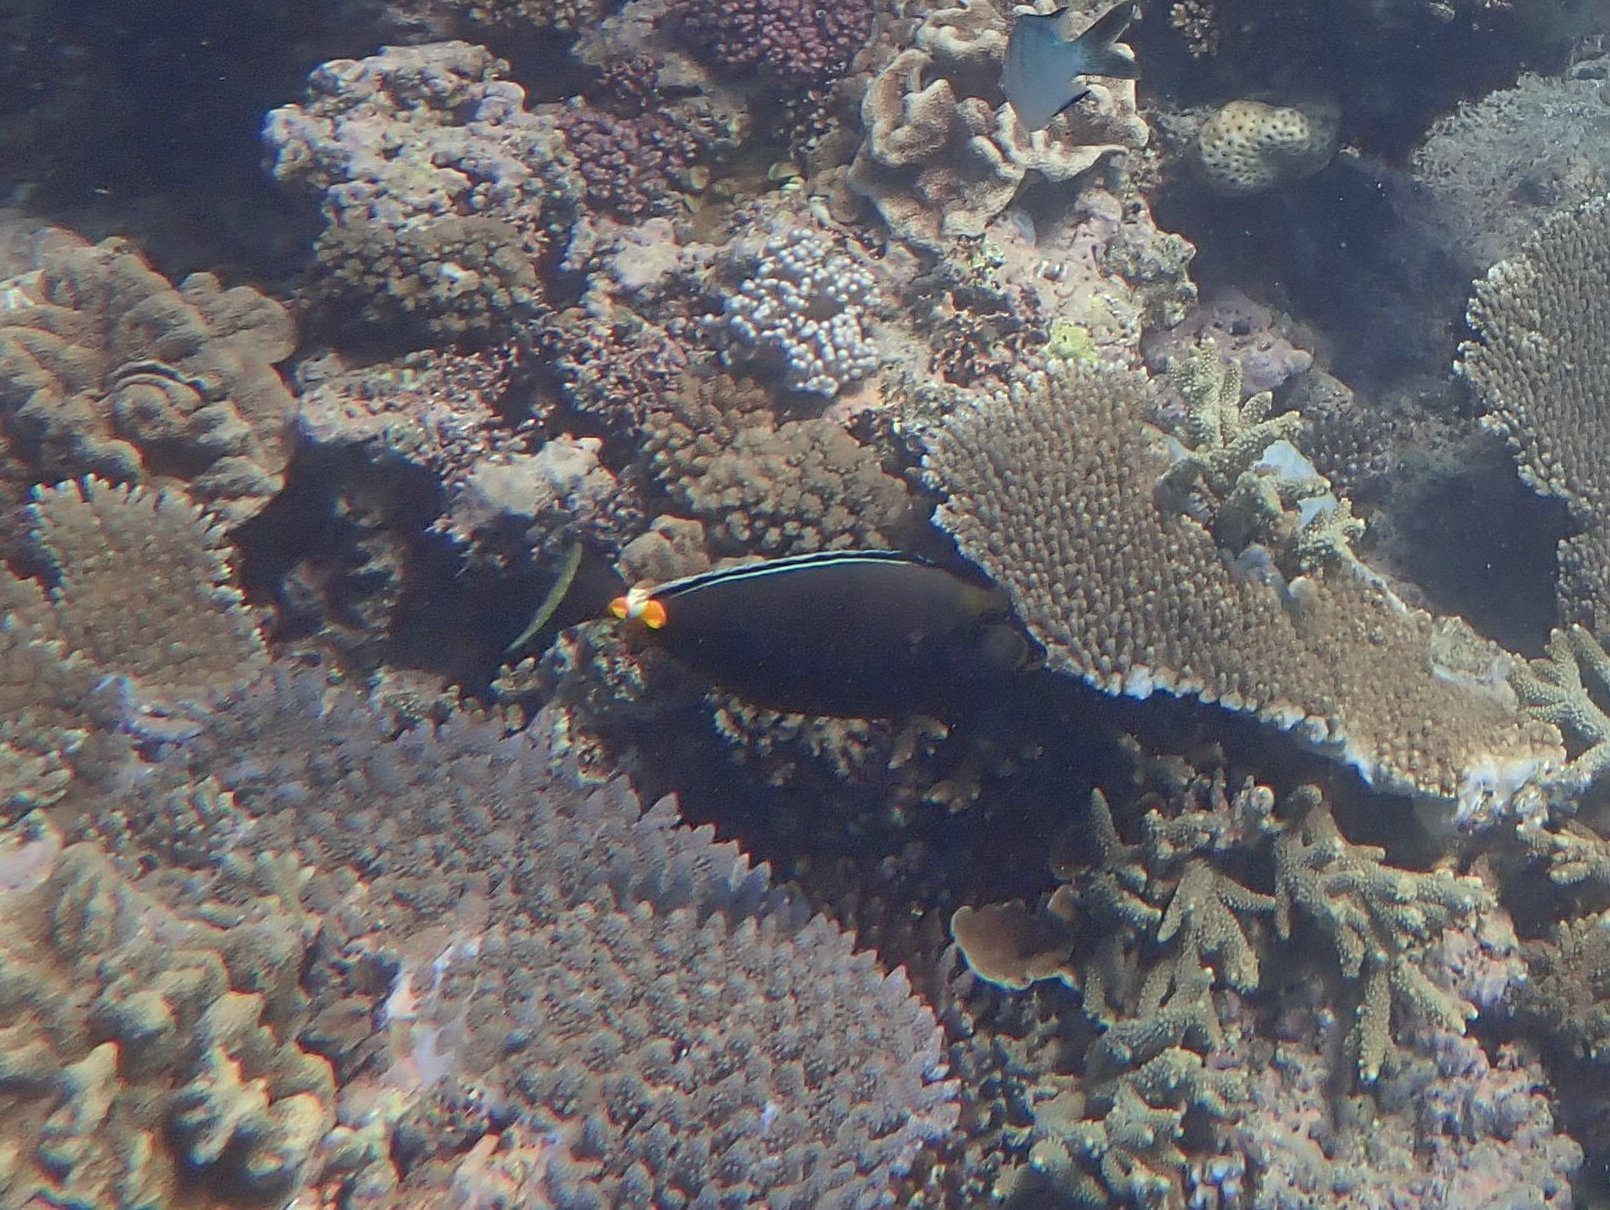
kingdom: Animalia
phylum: Chordata
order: Perciformes
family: Acanthuridae
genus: Naso
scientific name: Naso lituratus
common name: Orangespine unicornfish
